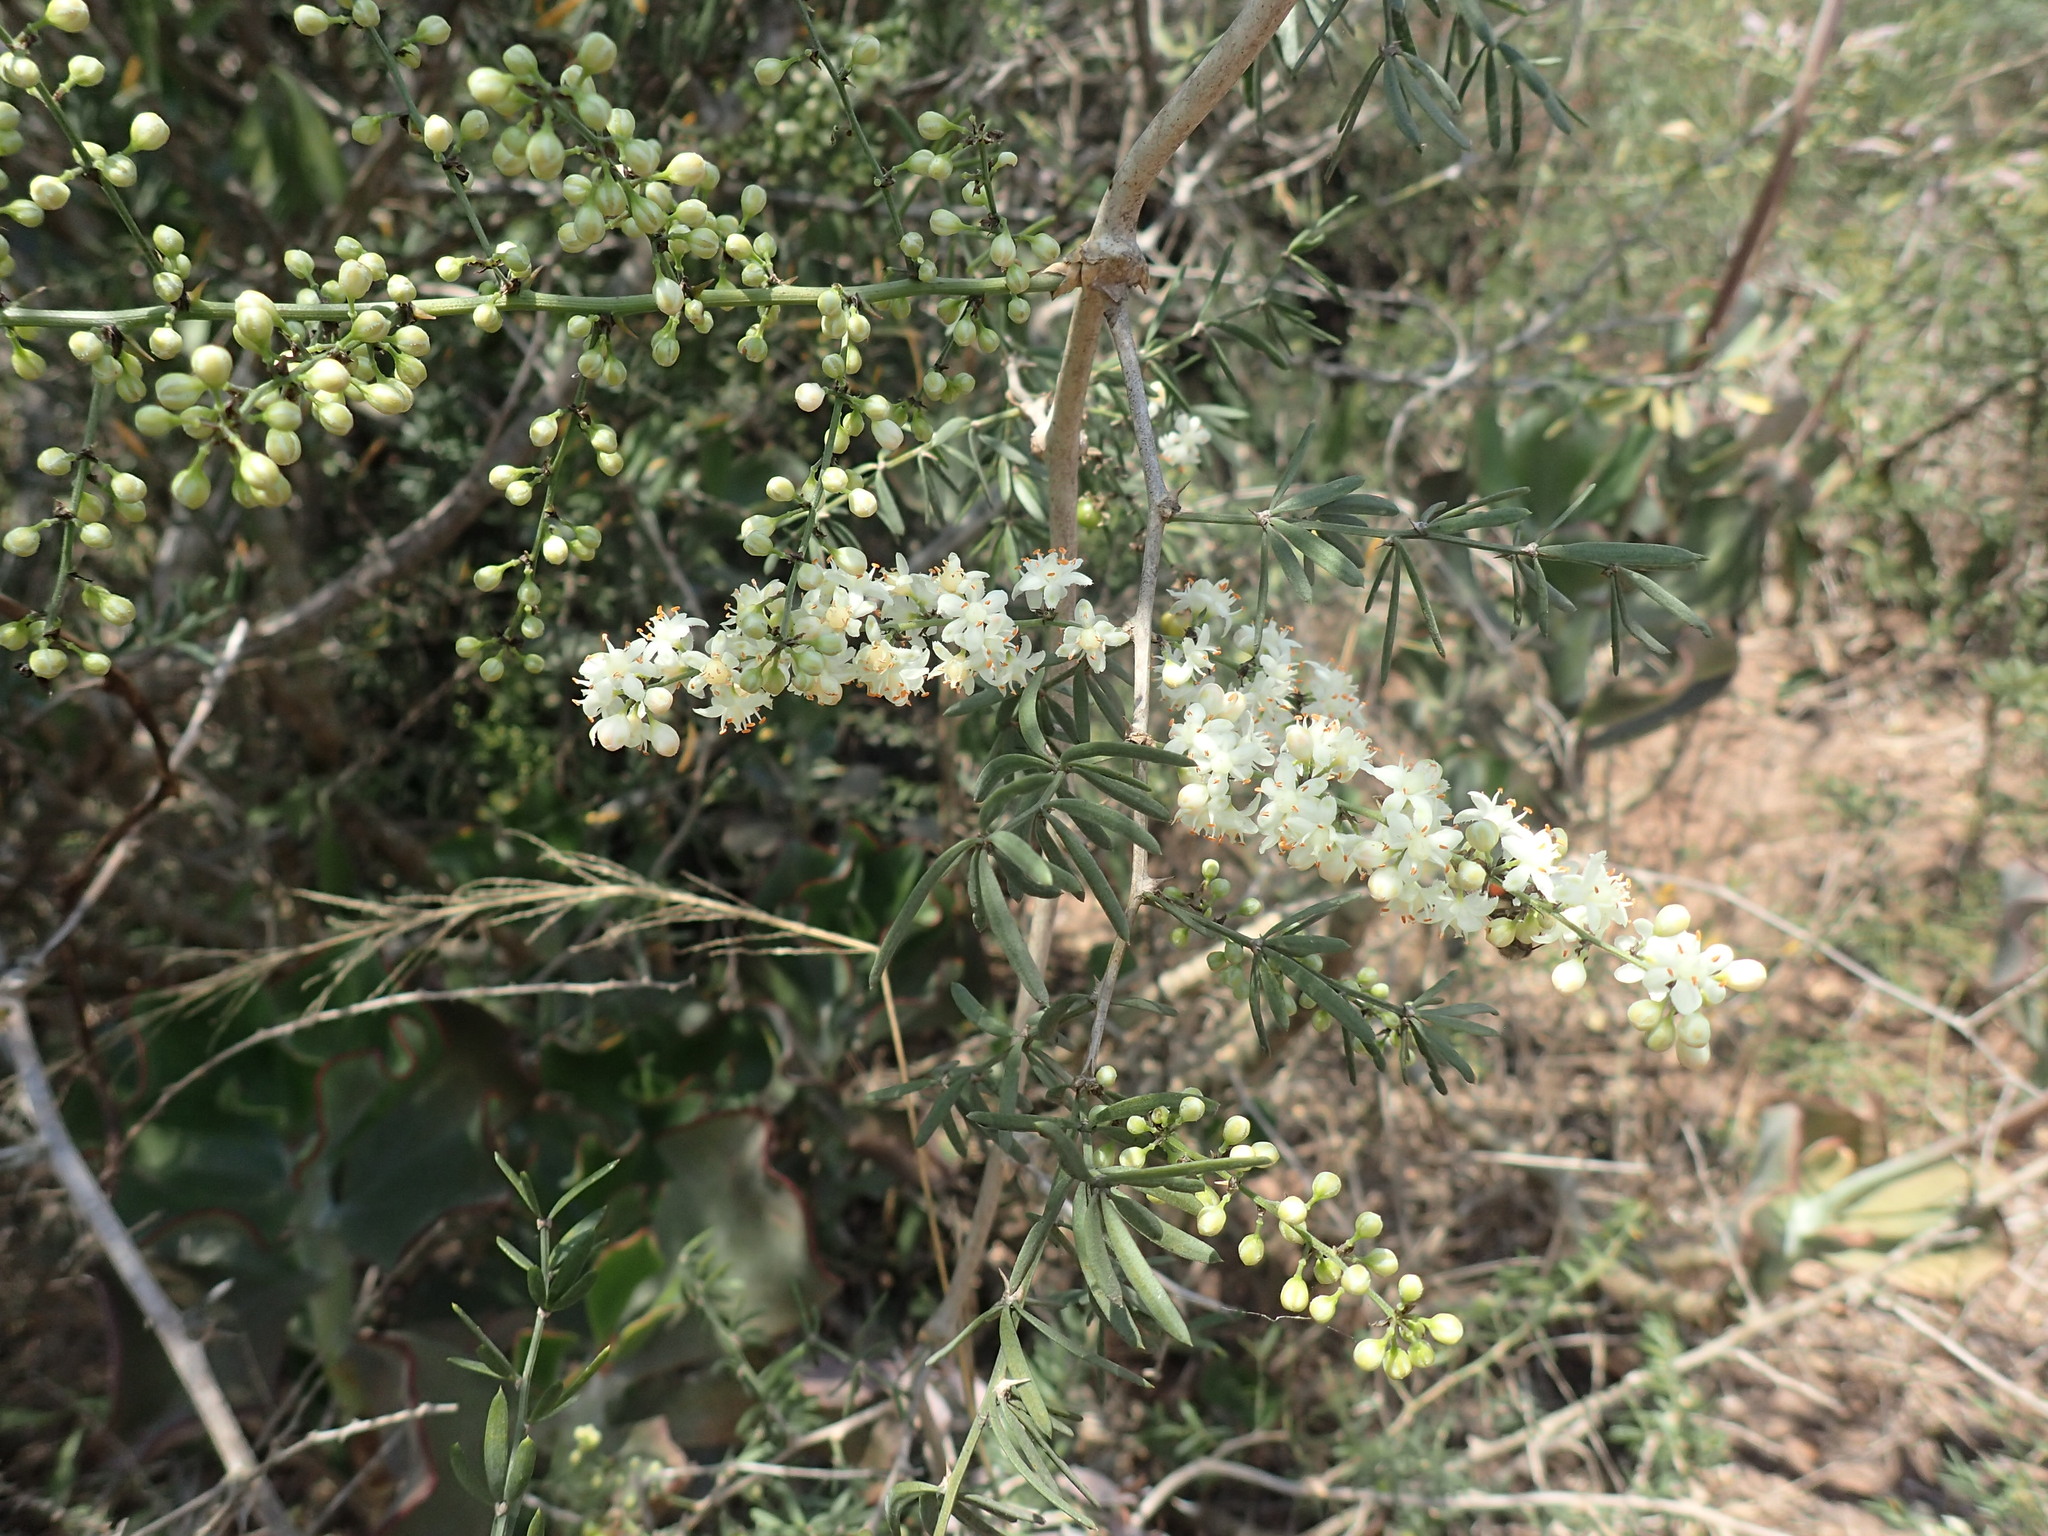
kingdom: Plantae
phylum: Tracheophyta
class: Liliopsida
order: Asparagales
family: Asparagaceae
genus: Asparagus
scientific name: Asparagus falcatus
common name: Asparagus
